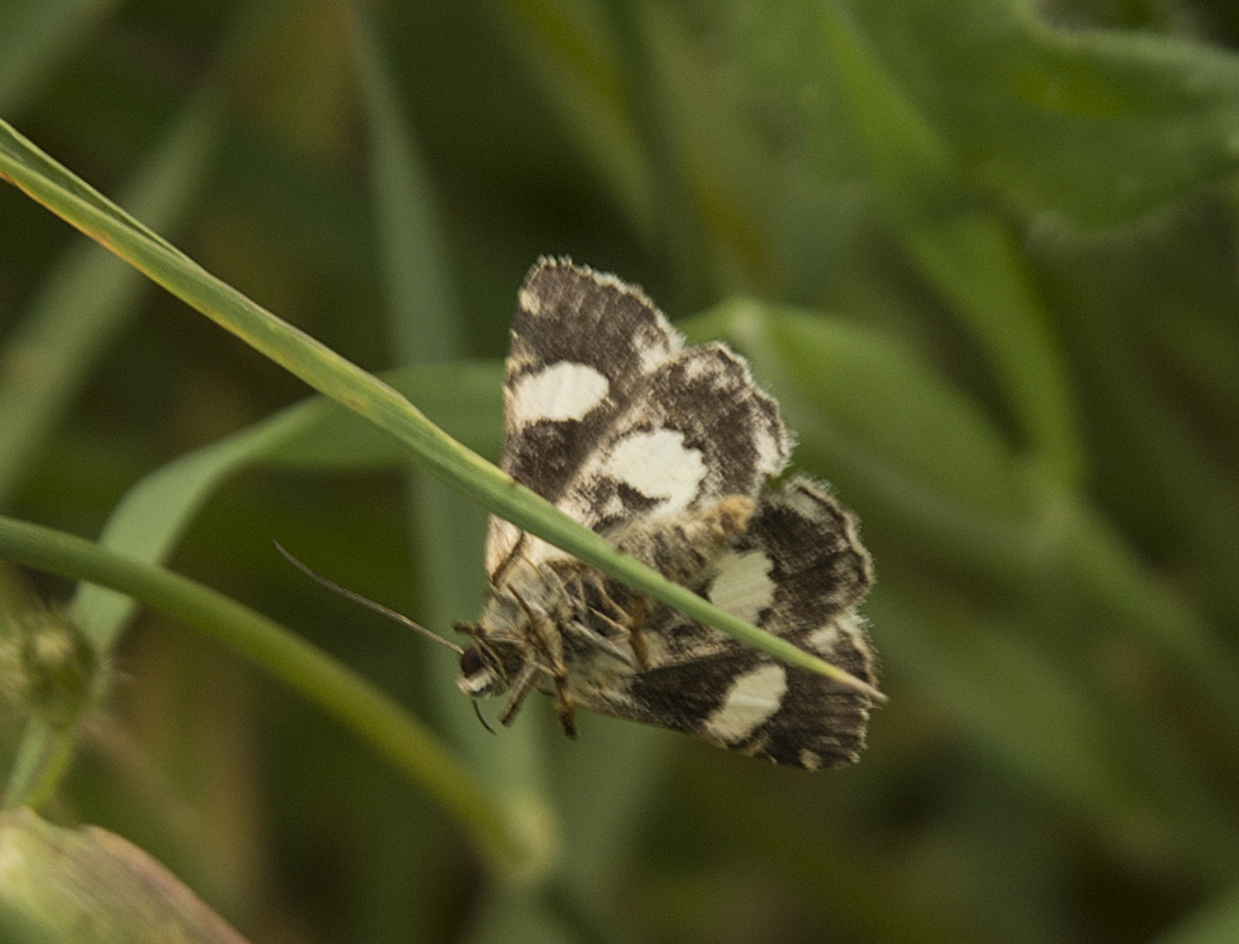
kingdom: Animalia
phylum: Arthropoda
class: Insecta
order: Lepidoptera
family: Erebidae
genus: Tyta
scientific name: Tyta luctuosa
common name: Four-spotted
